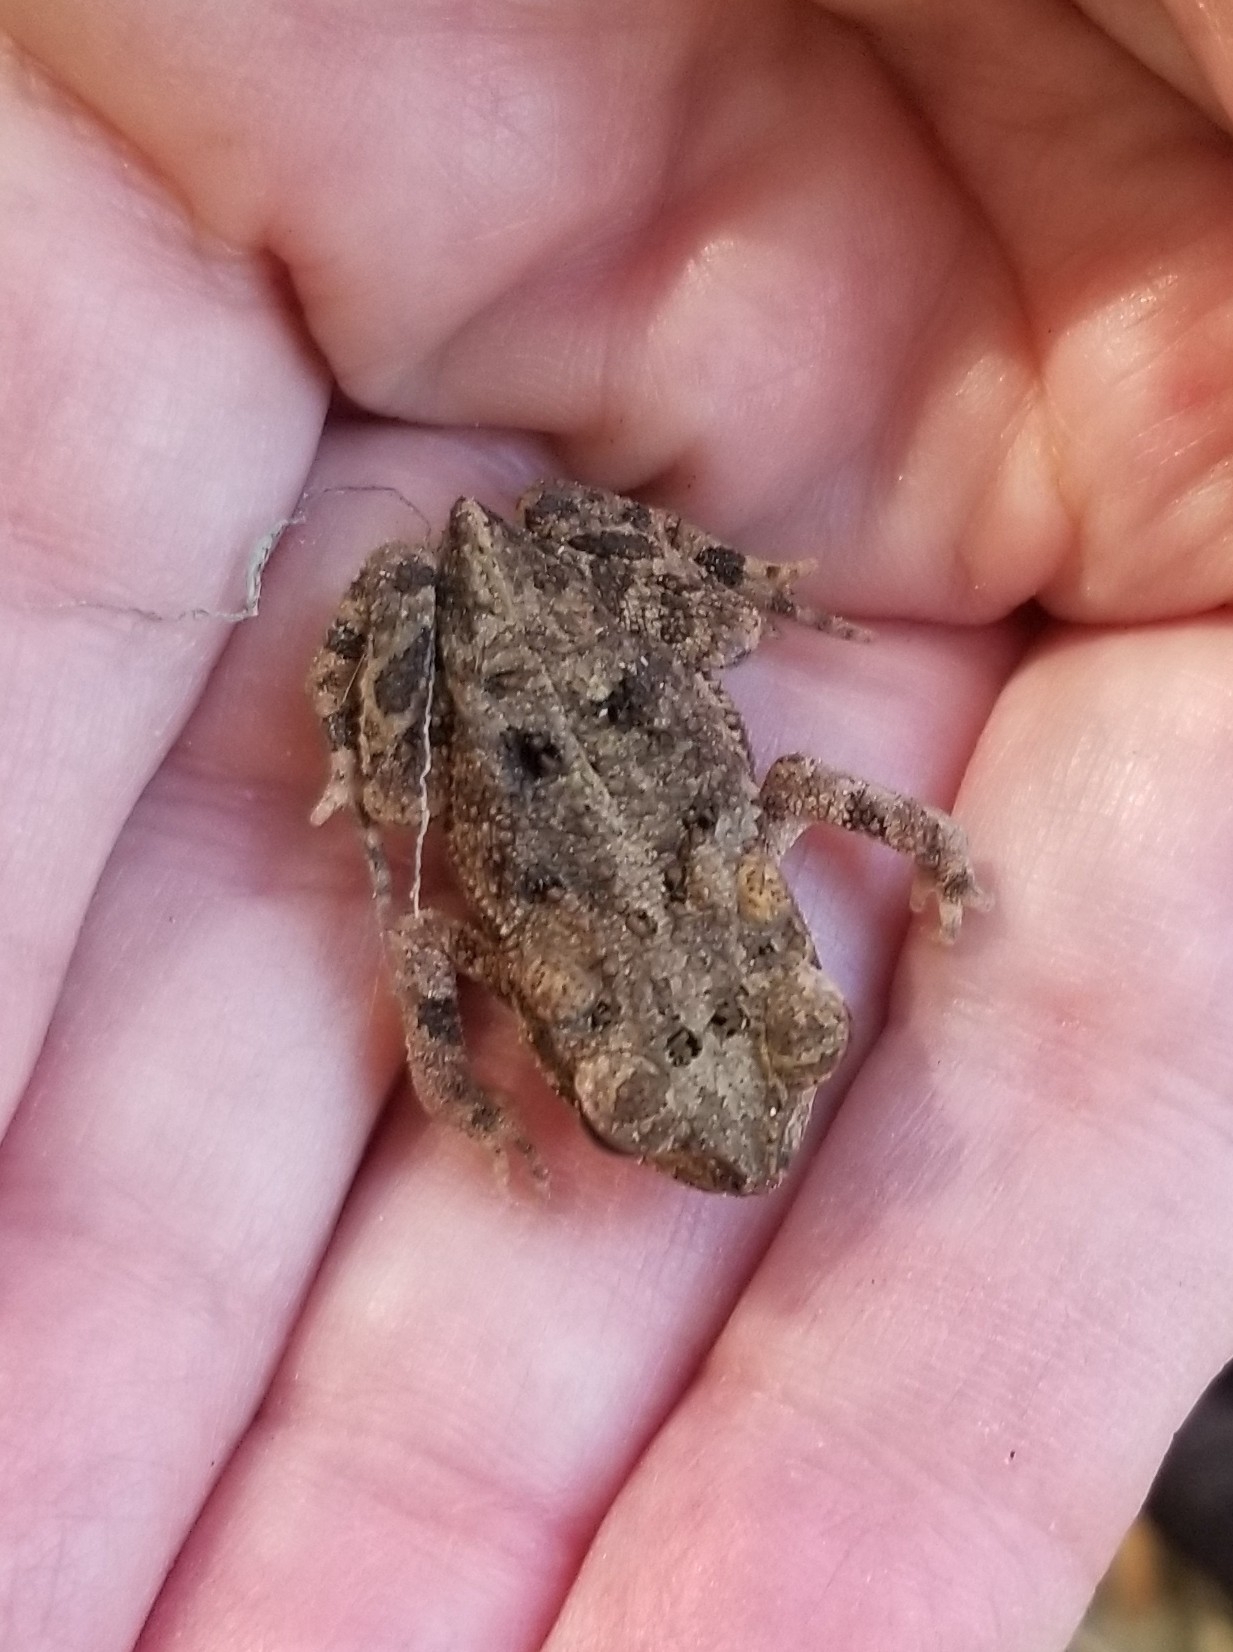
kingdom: Animalia
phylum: Chordata
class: Amphibia
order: Anura
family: Bufonidae
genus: Incilius
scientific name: Incilius nebulifer
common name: Gulf coast toad
